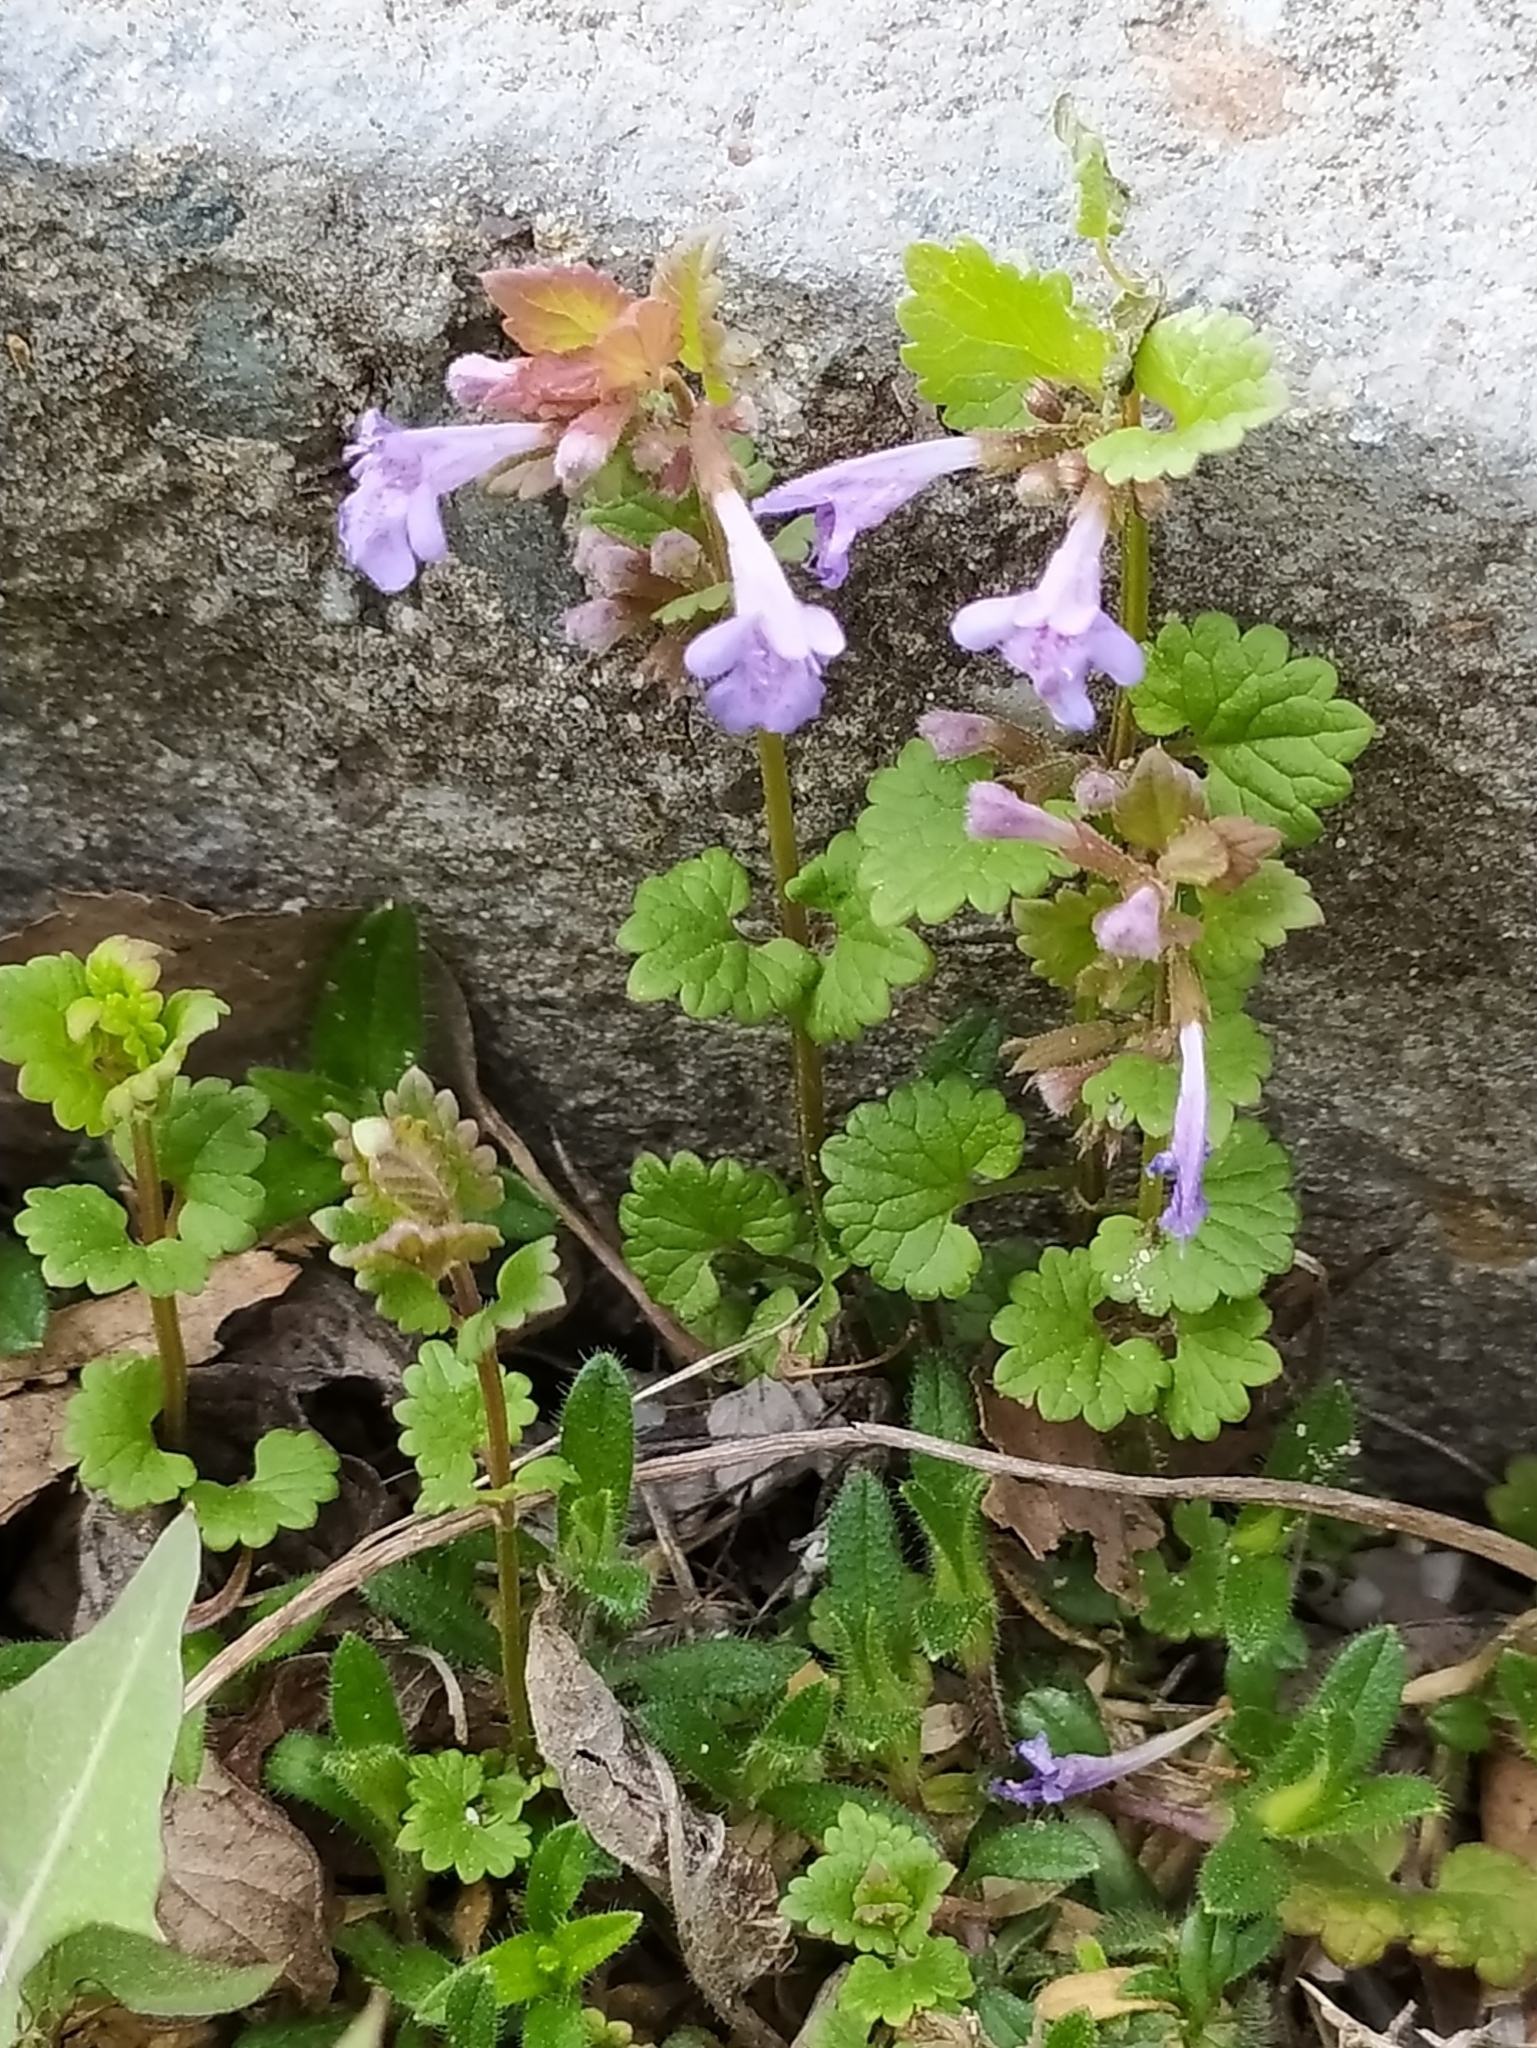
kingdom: Plantae
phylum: Tracheophyta
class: Magnoliopsida
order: Lamiales
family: Lamiaceae
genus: Glechoma
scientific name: Glechoma hederacea
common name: Ground ivy
